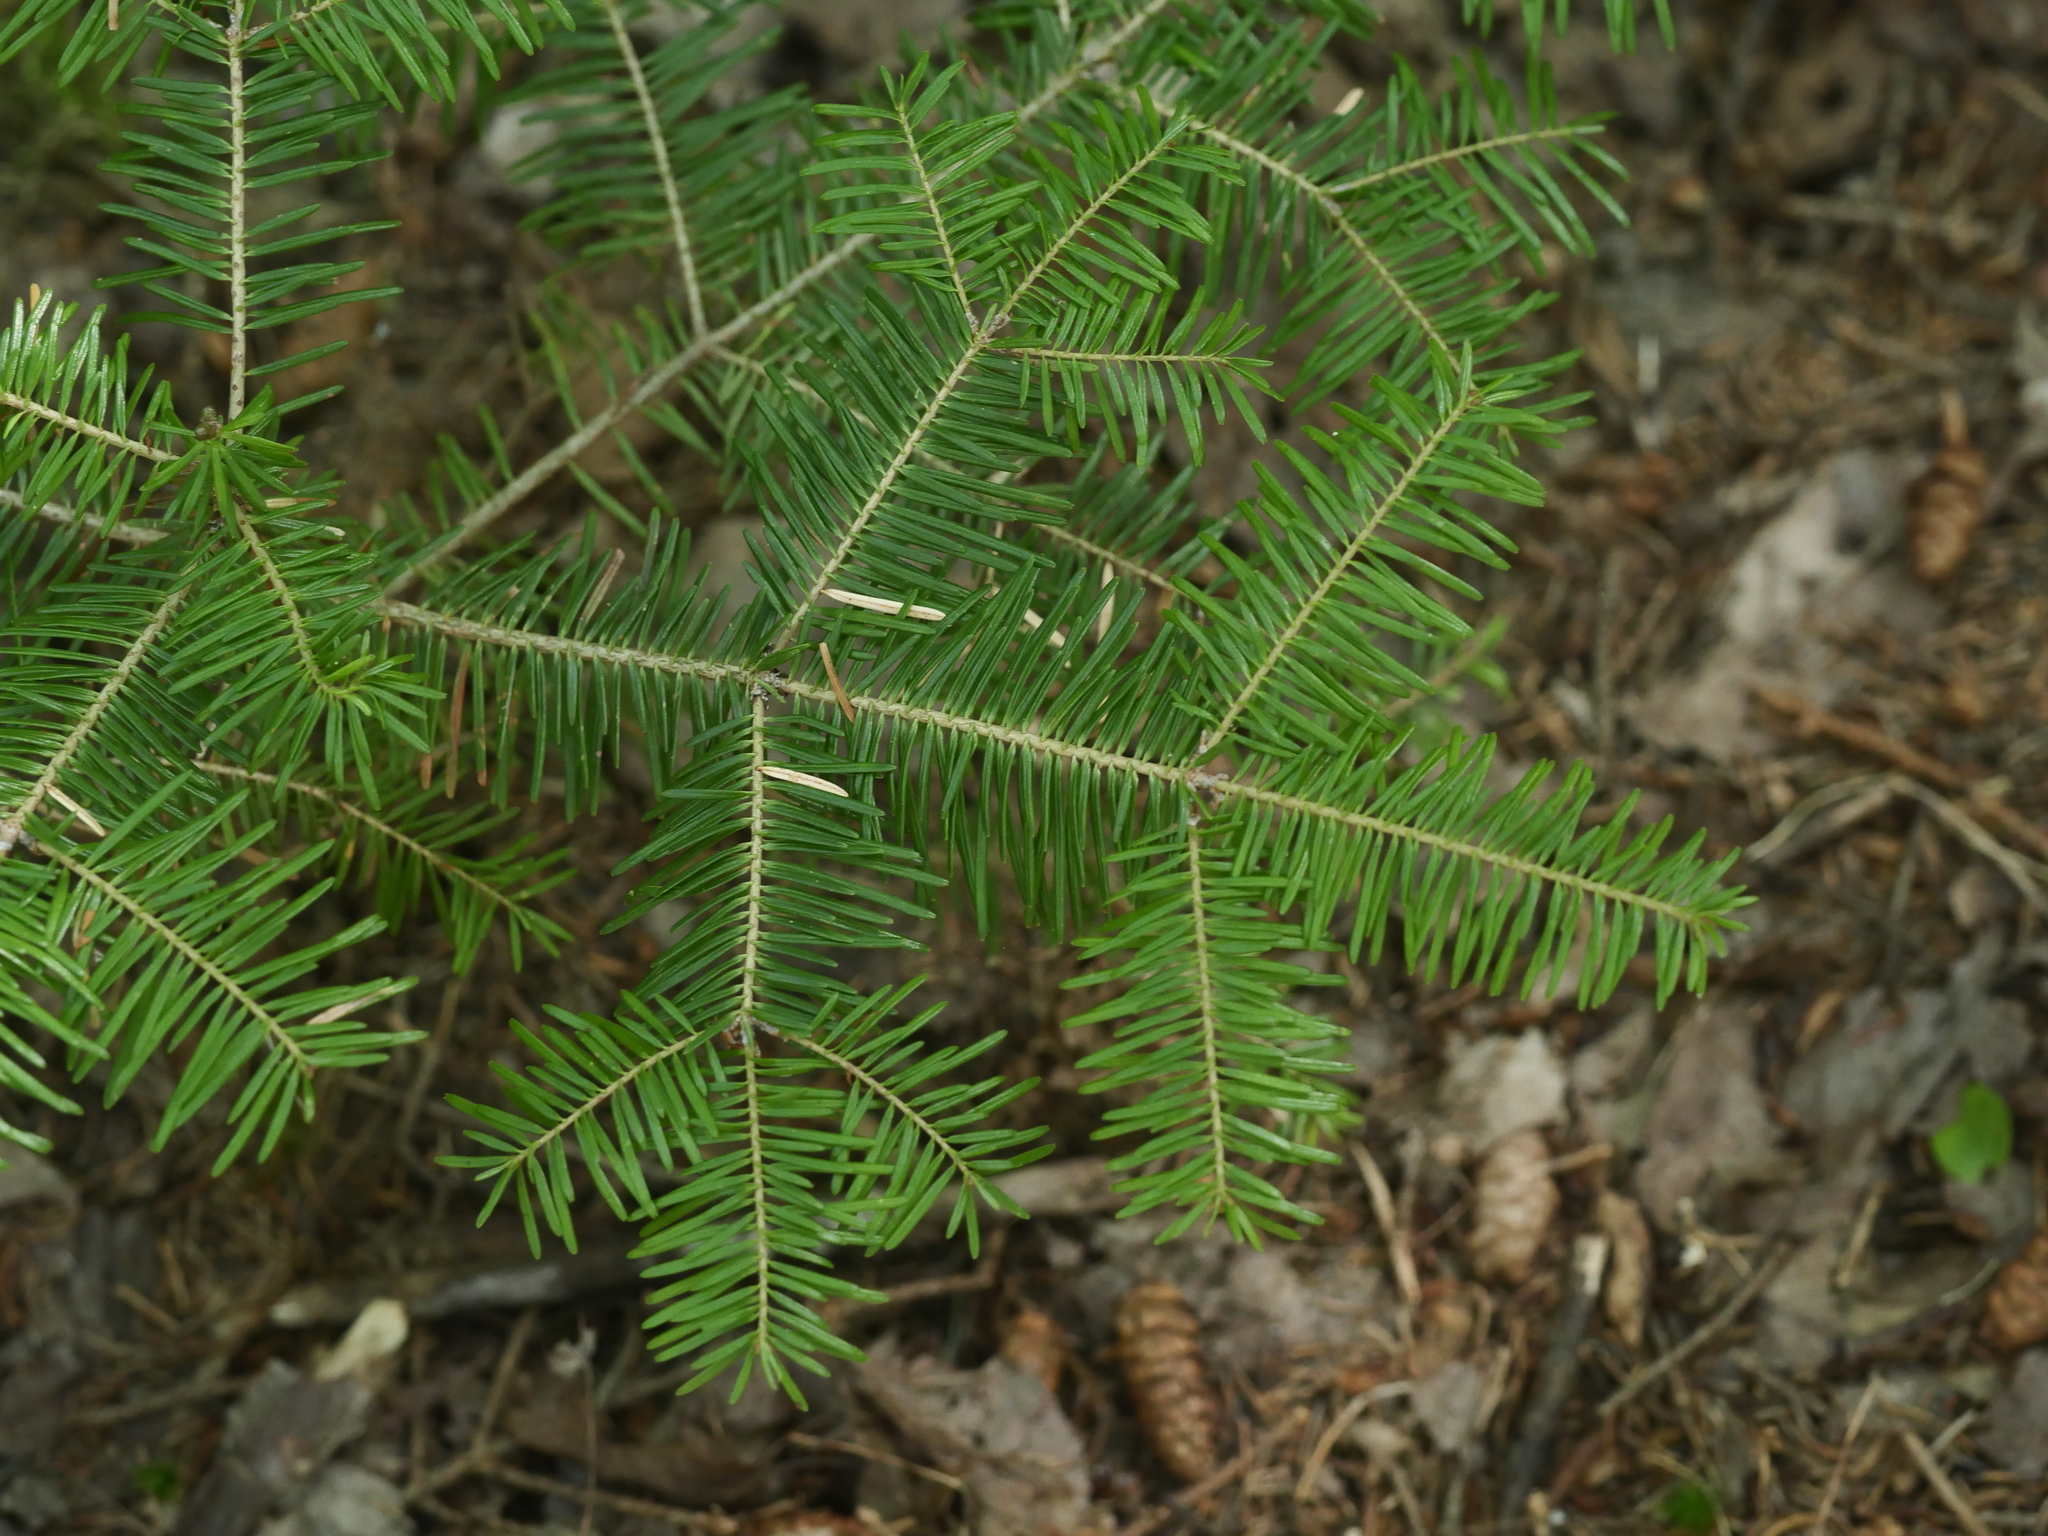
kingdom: Plantae
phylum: Tracheophyta
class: Pinopsida
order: Pinales
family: Pinaceae
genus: Abies
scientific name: Abies balsamea
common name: Balsam fir
